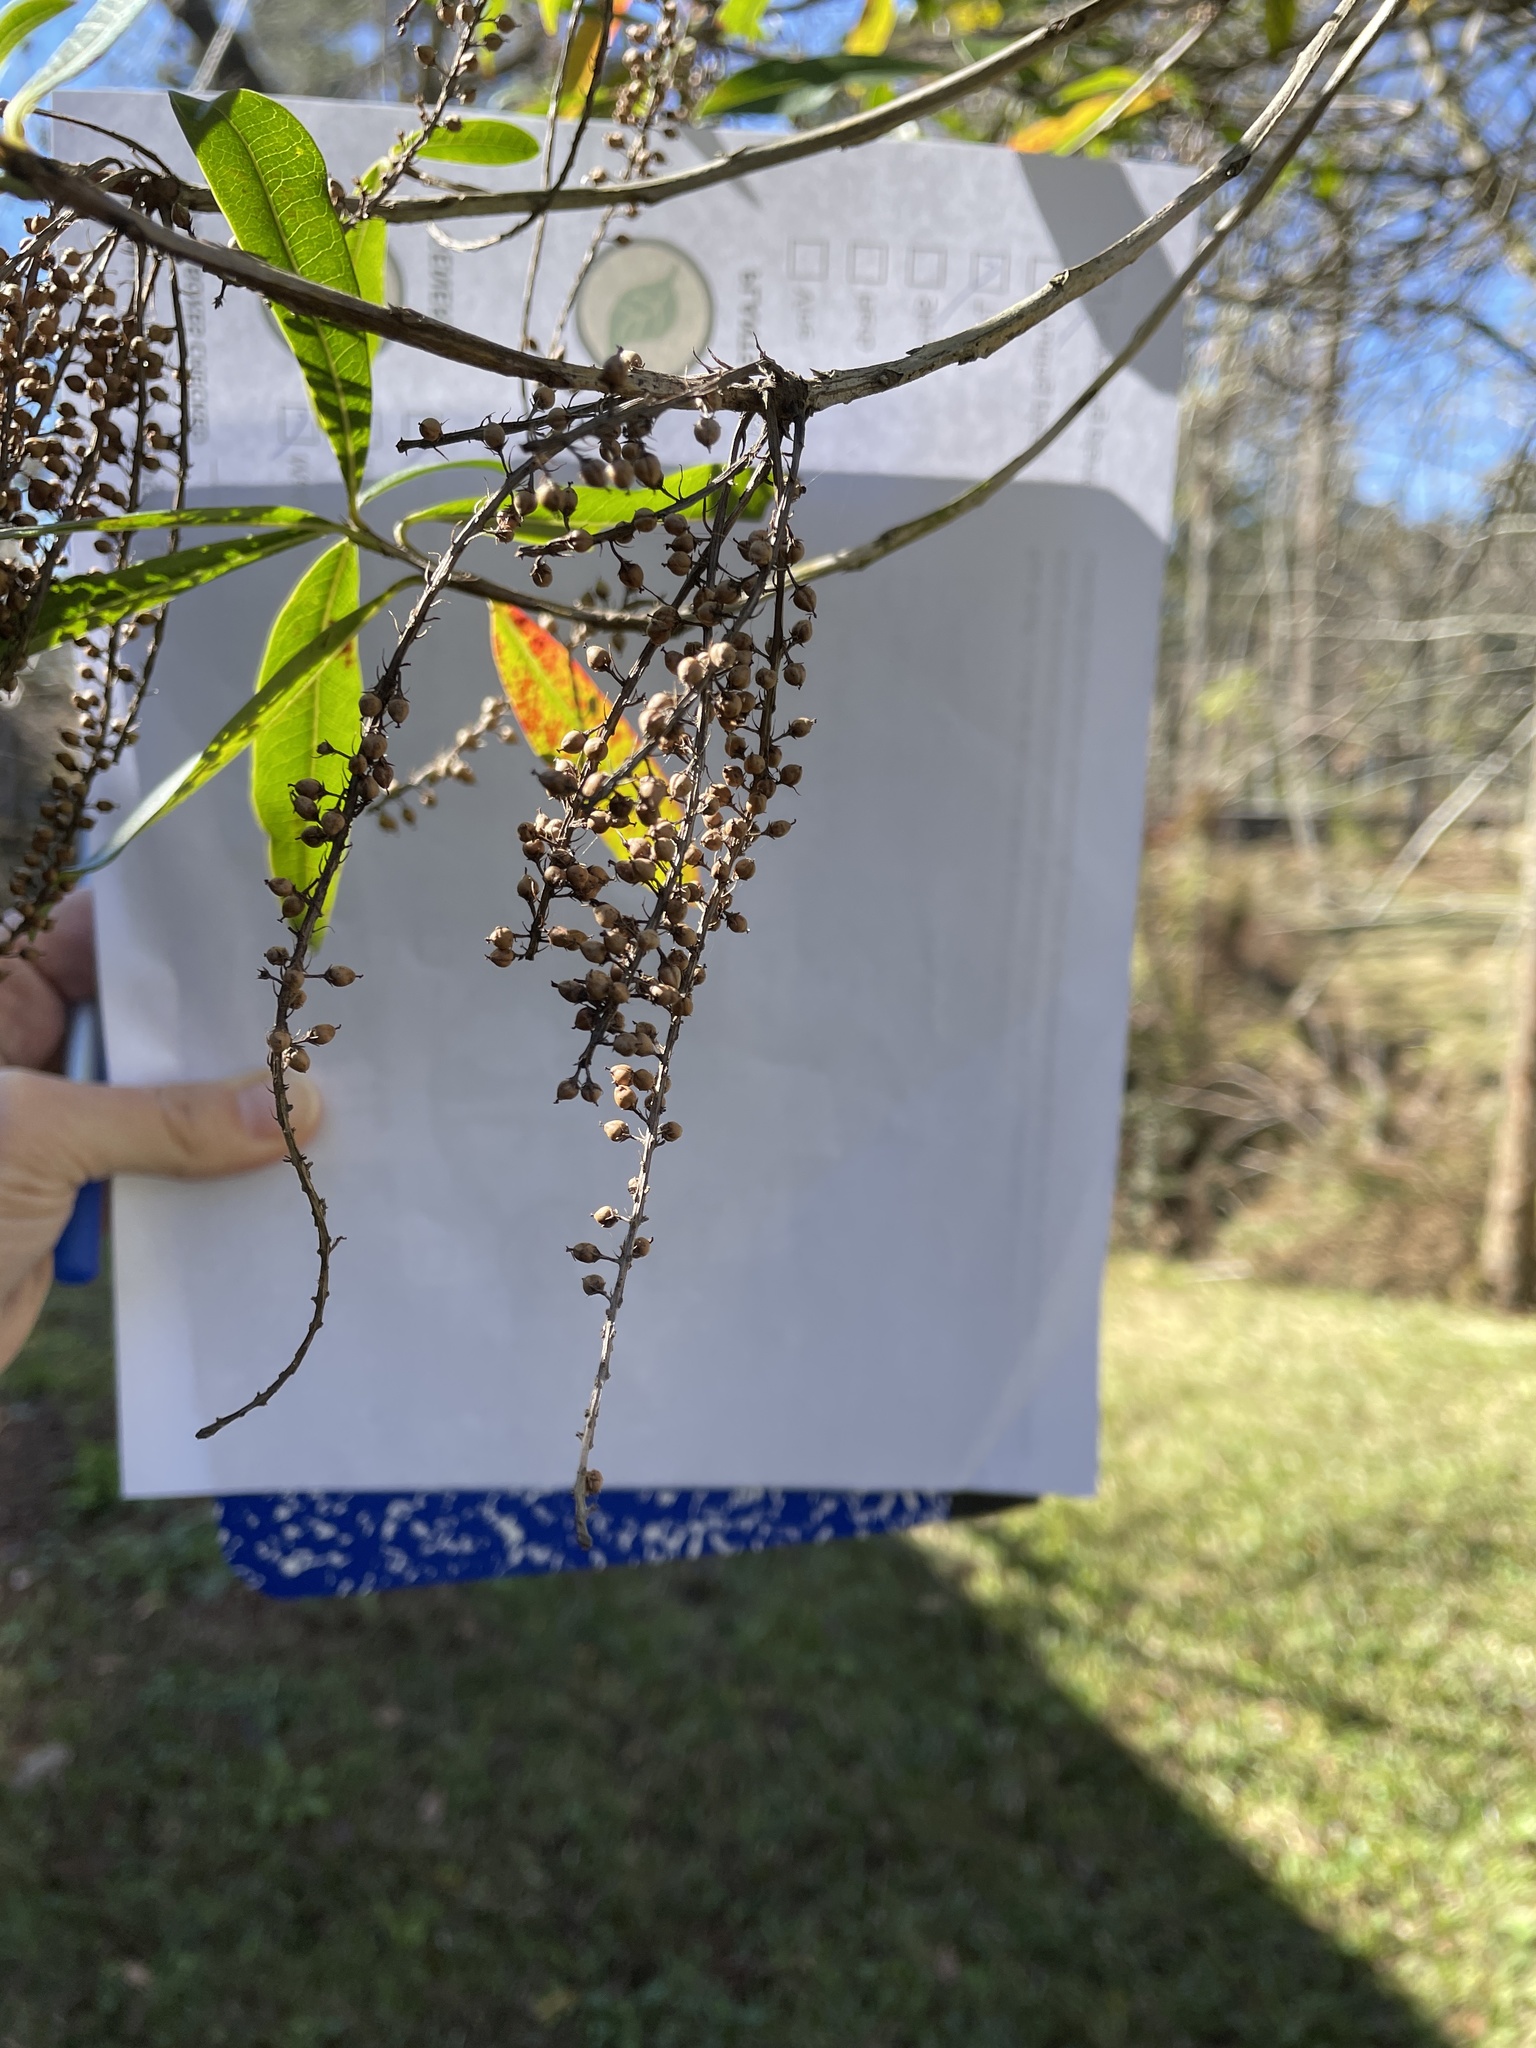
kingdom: Plantae
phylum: Tracheophyta
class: Magnoliopsida
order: Ericales
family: Cyrillaceae
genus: Cyrilla
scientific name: Cyrilla racemiflora
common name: Black titi
